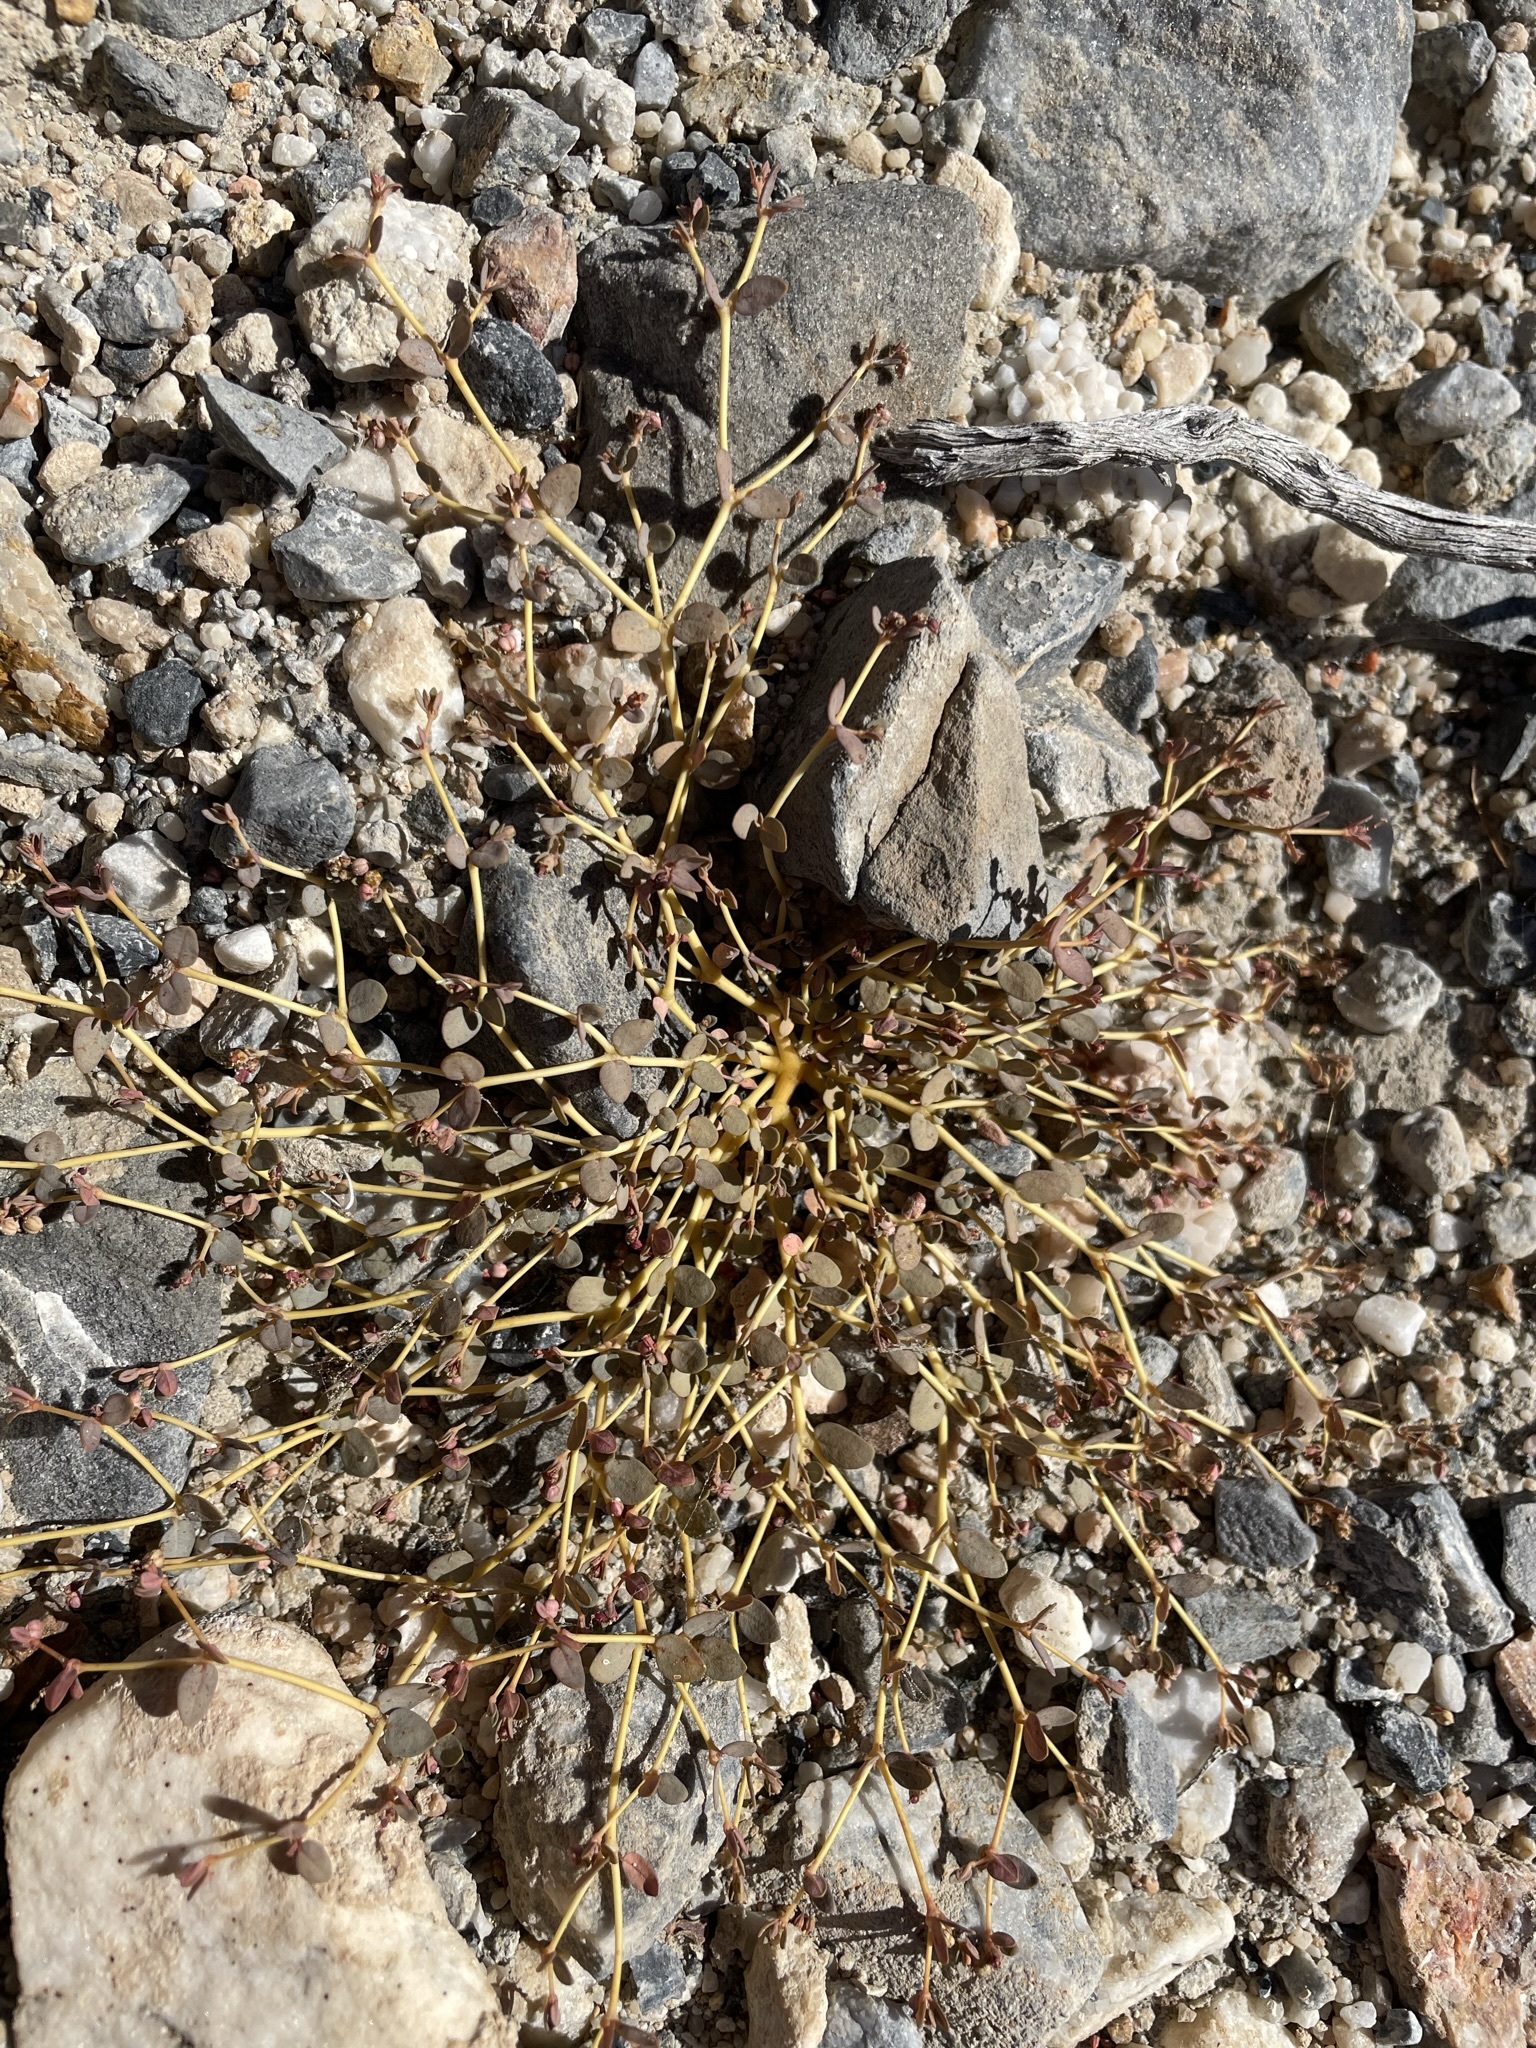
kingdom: Plantae
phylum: Tracheophyta
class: Magnoliopsida
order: Malpighiales
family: Euphorbiaceae
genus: Euphorbia
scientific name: Euphorbia parishii
